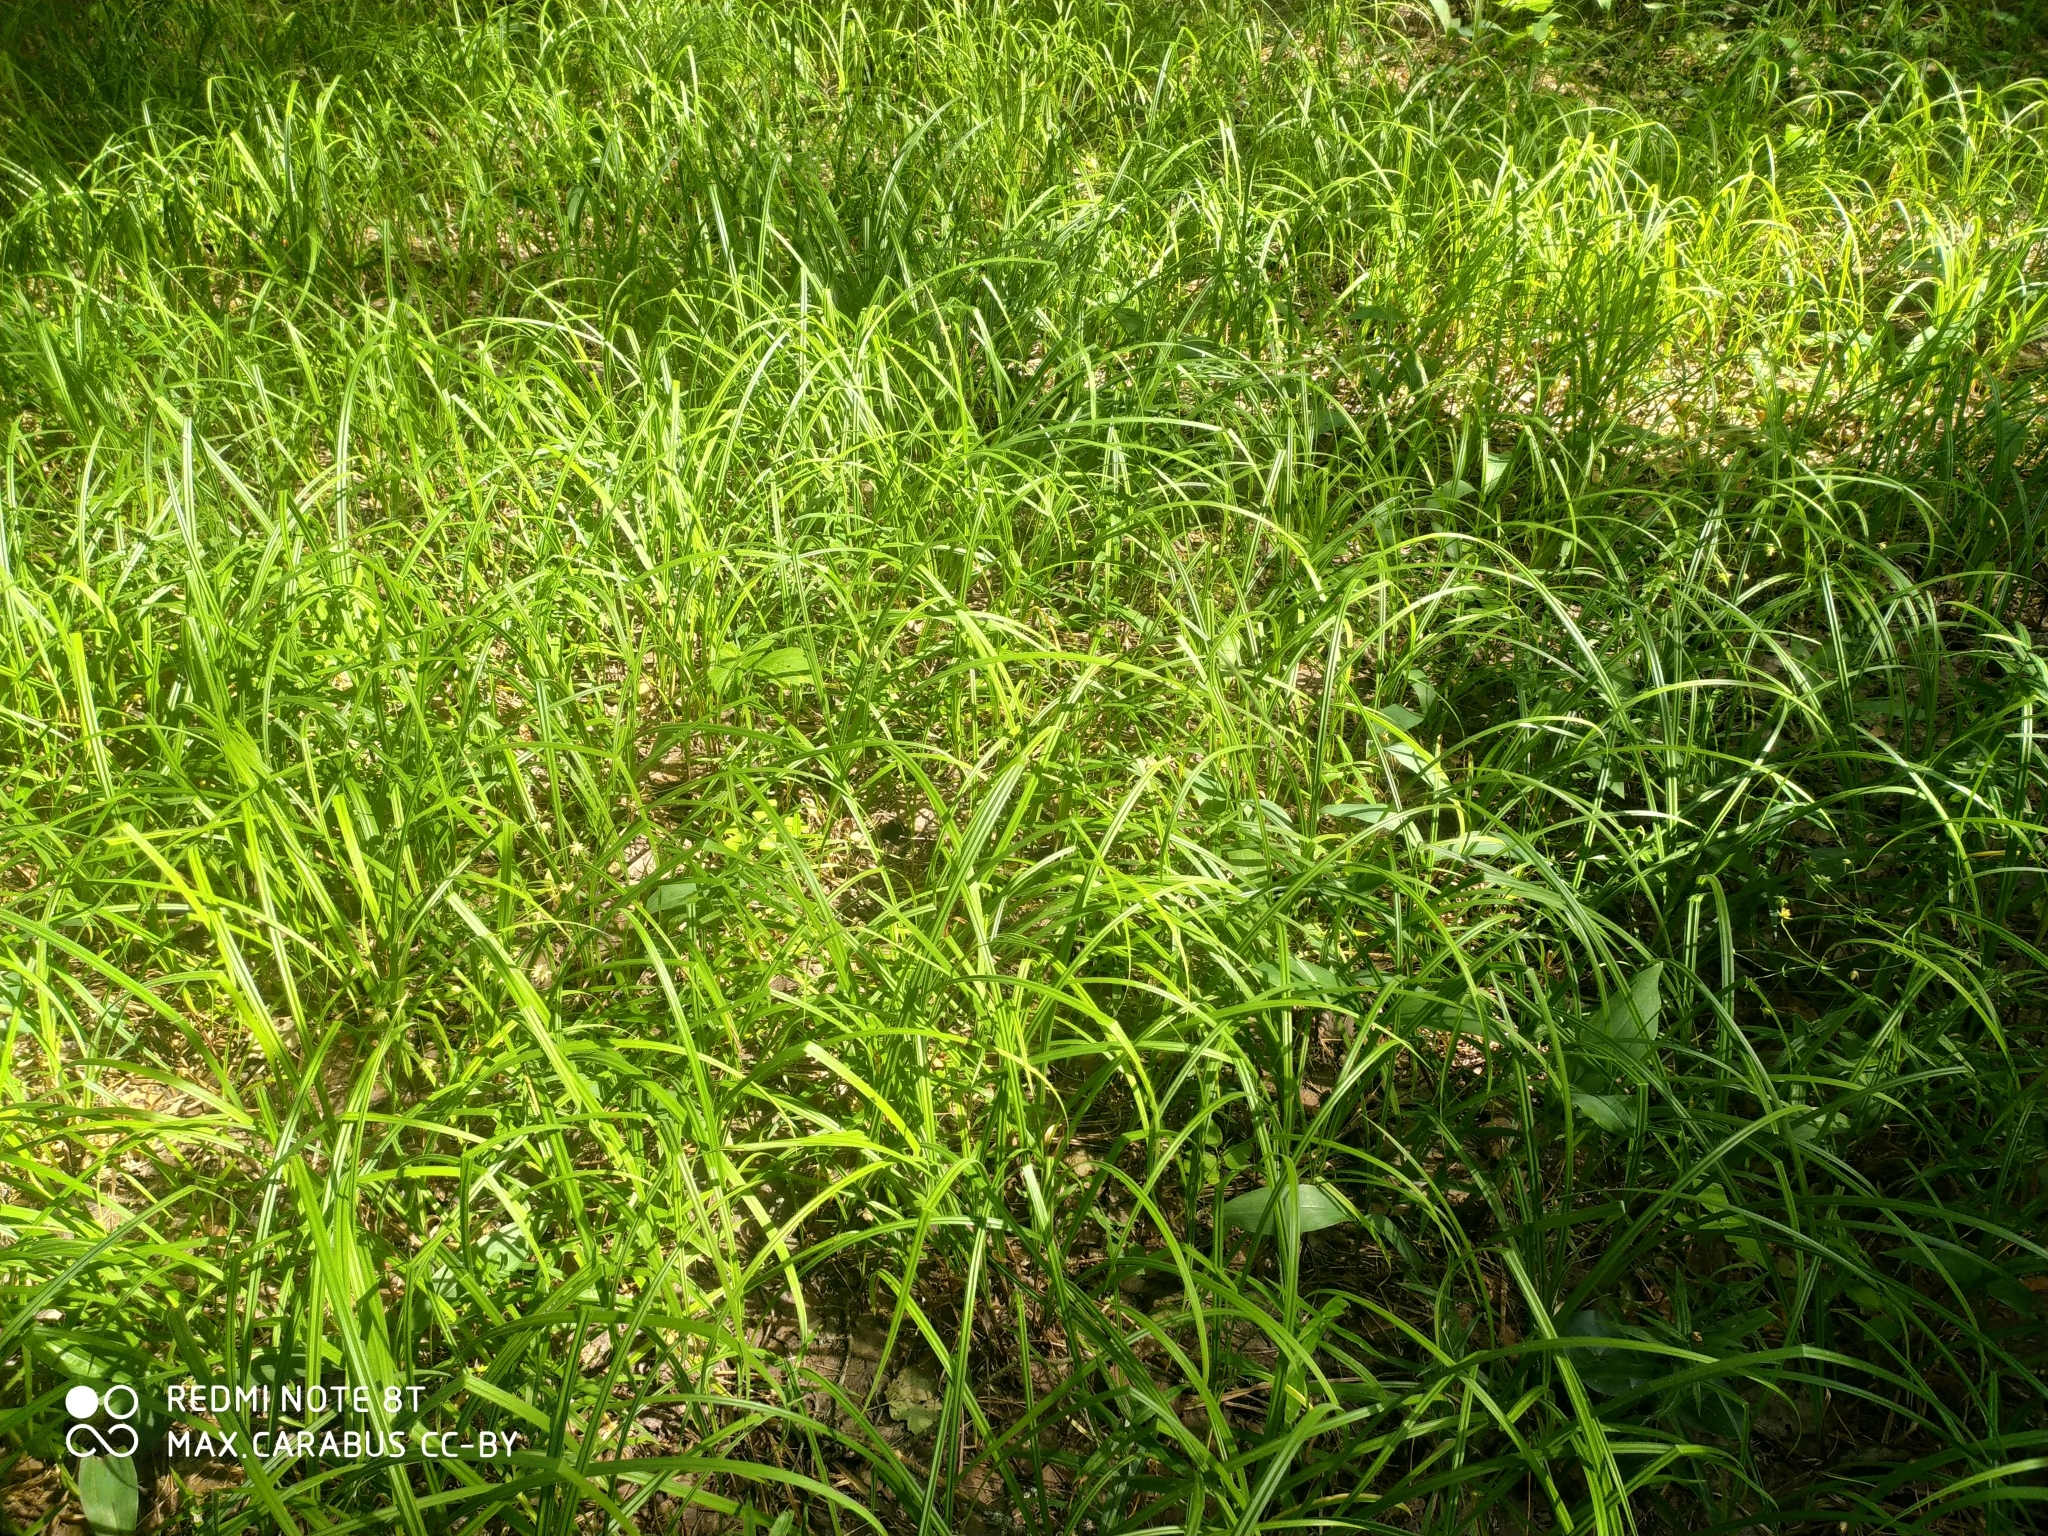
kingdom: Plantae
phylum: Tracheophyta
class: Liliopsida
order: Poales
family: Cyperaceae
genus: Carex
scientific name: Carex pilosa
